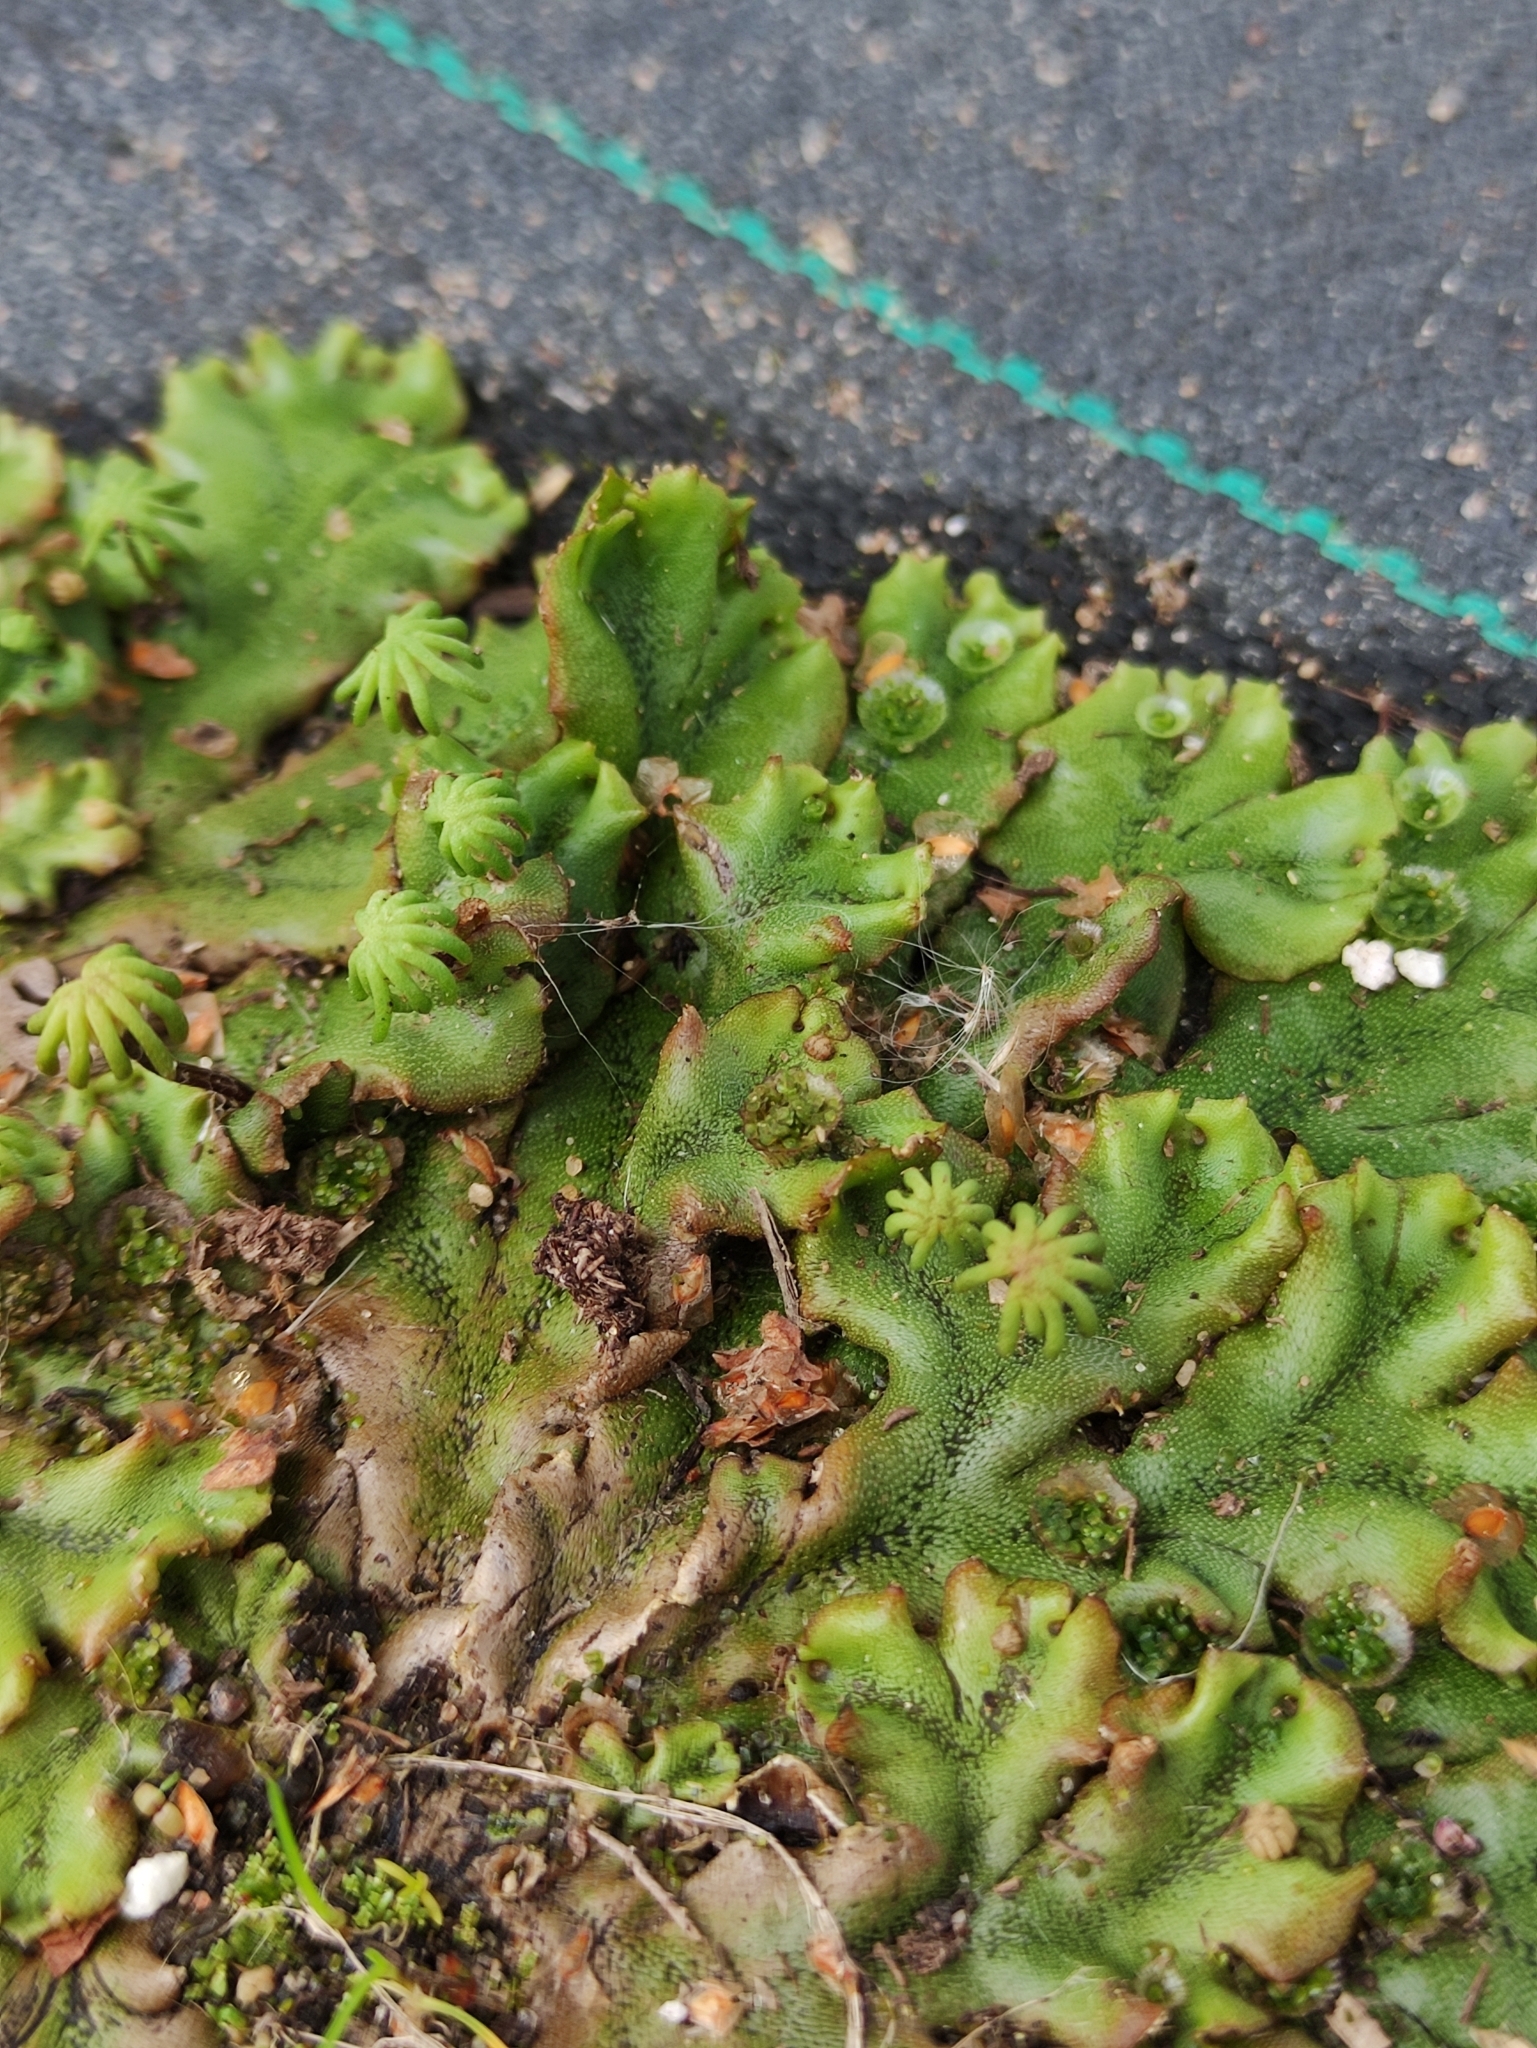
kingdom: Plantae
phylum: Marchantiophyta
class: Marchantiopsida
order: Marchantiales
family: Marchantiaceae
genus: Marchantia
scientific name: Marchantia polymorpha
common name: Common liverwort
